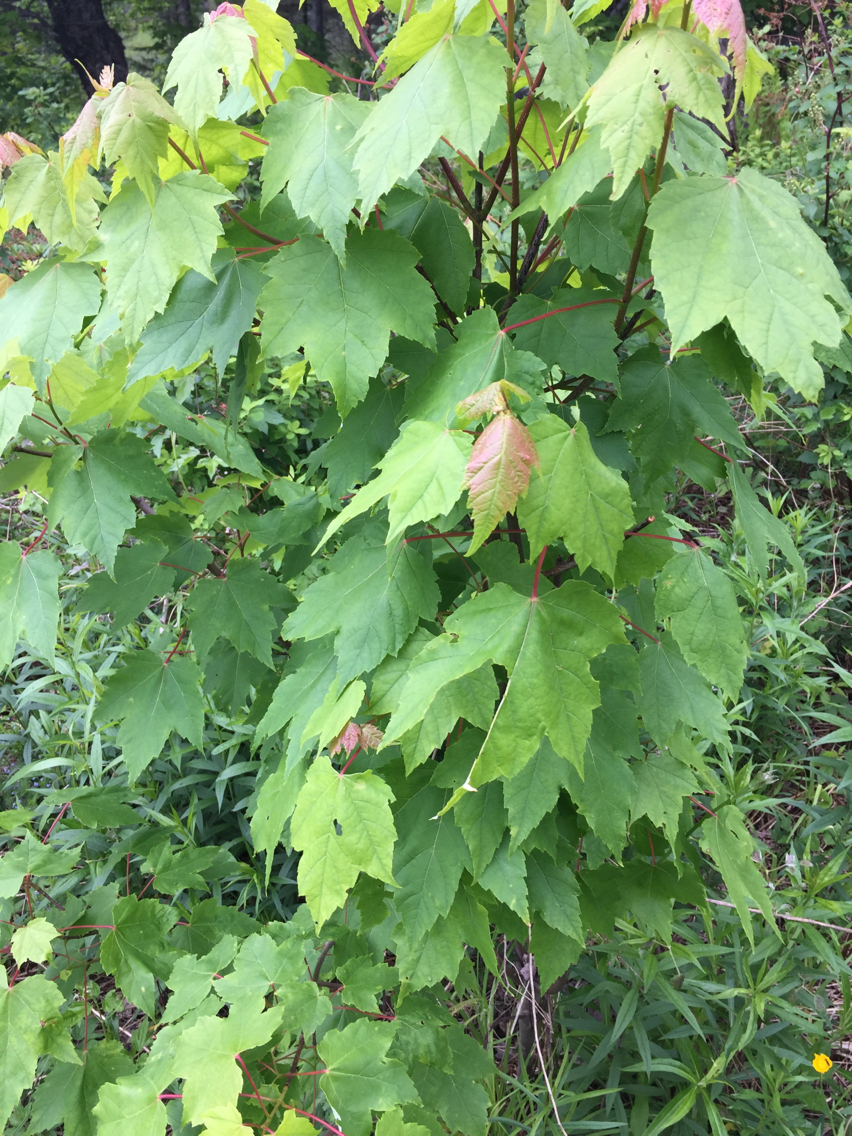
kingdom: Plantae
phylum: Tracheophyta
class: Magnoliopsida
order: Sapindales
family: Sapindaceae
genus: Acer
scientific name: Acer rubrum
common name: Red maple
